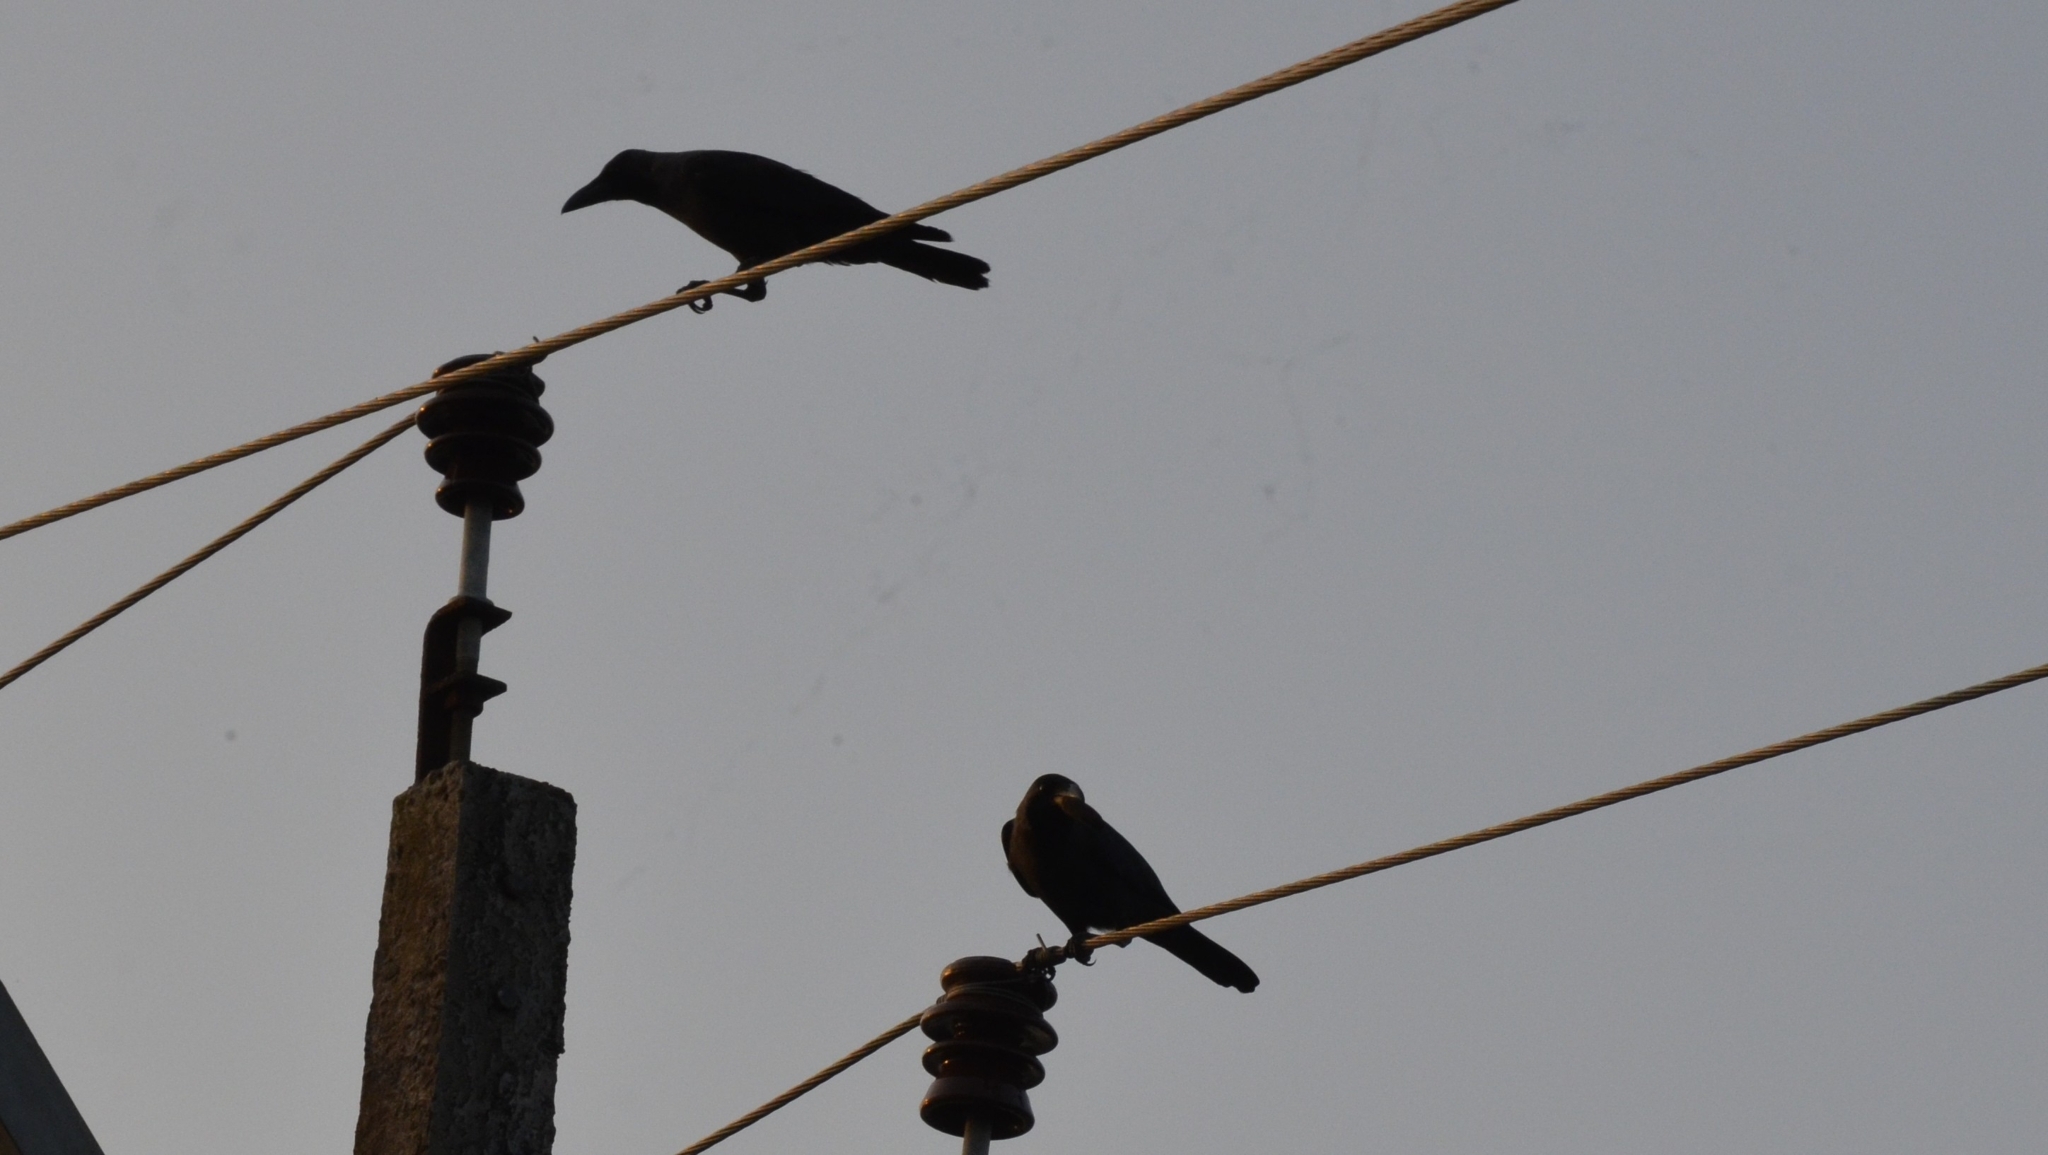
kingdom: Animalia
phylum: Chordata
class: Aves
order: Passeriformes
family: Corvidae
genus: Corvus
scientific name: Corvus splendens
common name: House crow
